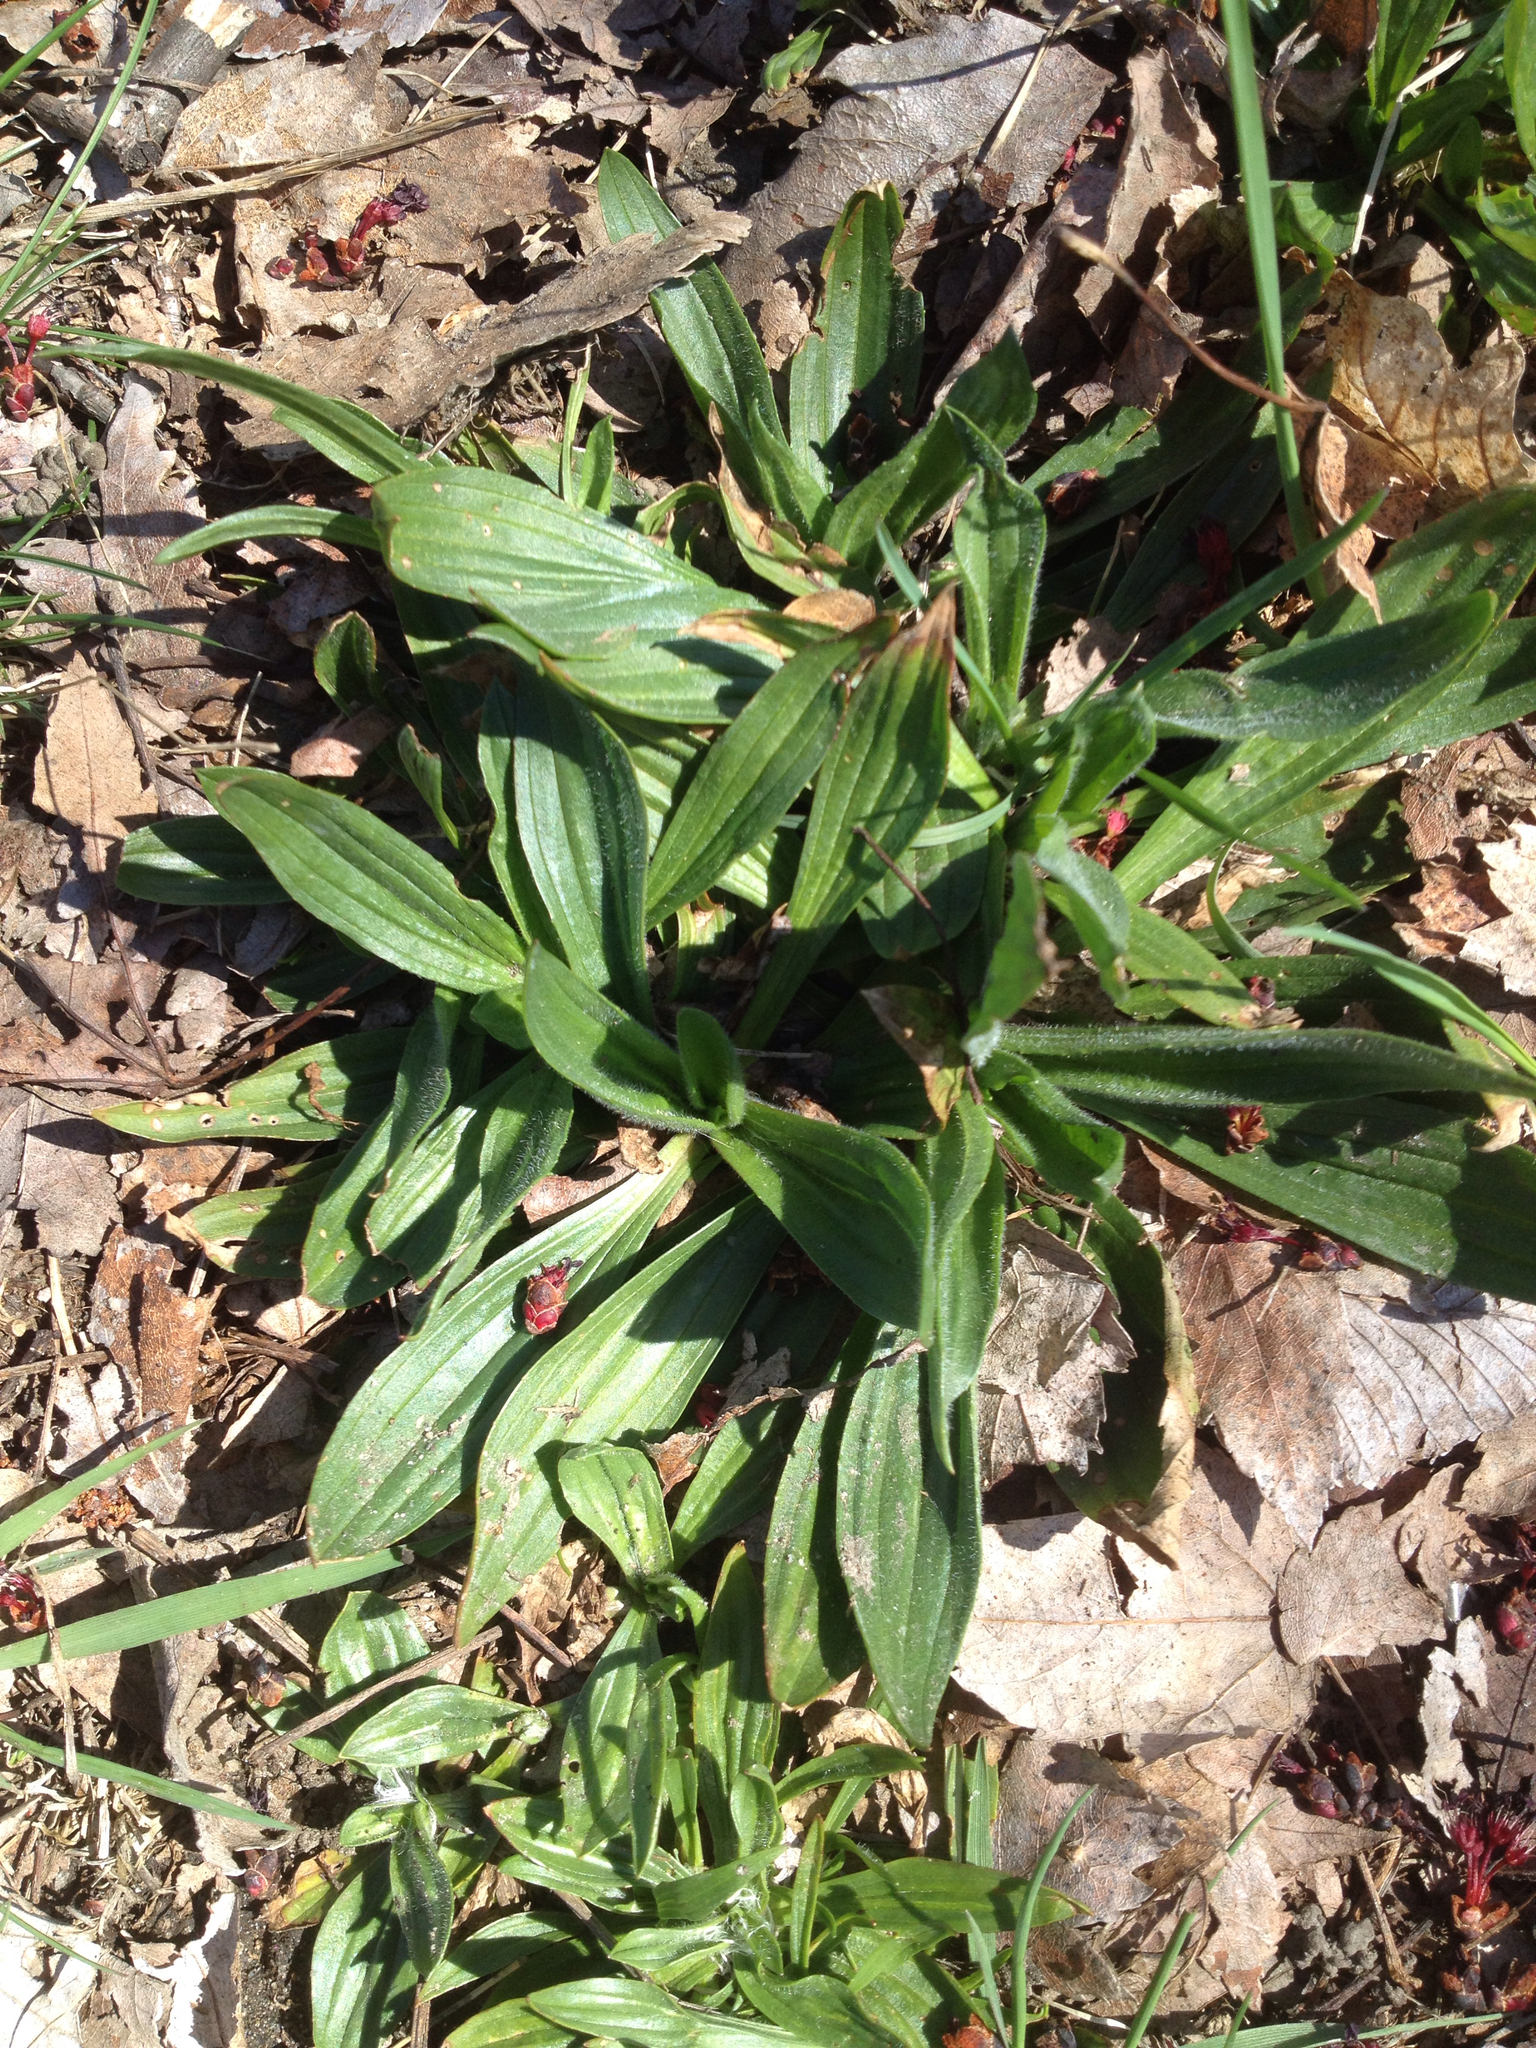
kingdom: Plantae
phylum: Tracheophyta
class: Magnoliopsida
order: Lamiales
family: Plantaginaceae
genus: Plantago
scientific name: Plantago lanceolata
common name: Ribwort plantain
